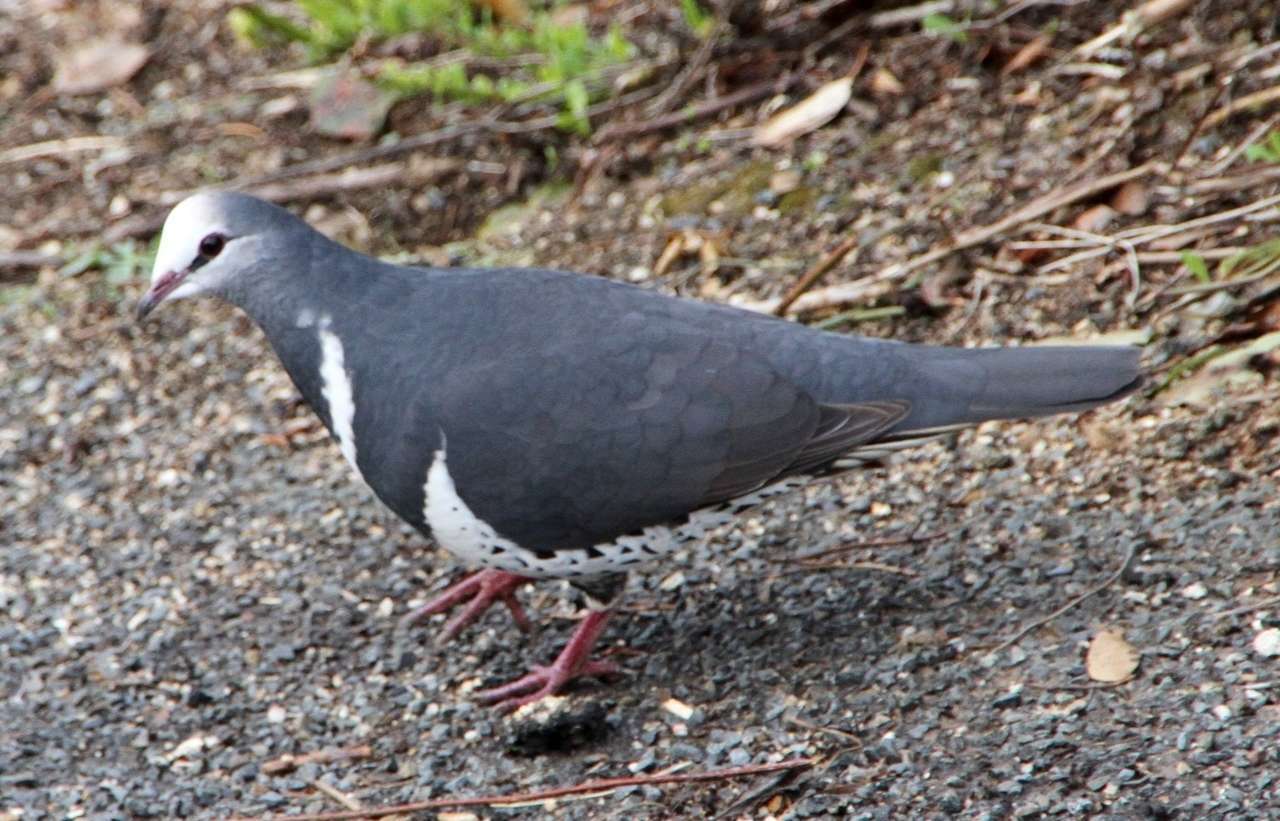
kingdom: Animalia
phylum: Chordata
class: Aves
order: Columbiformes
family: Columbidae
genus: Leucosarcia
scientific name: Leucosarcia melanoleuca
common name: Wonga pigeon
